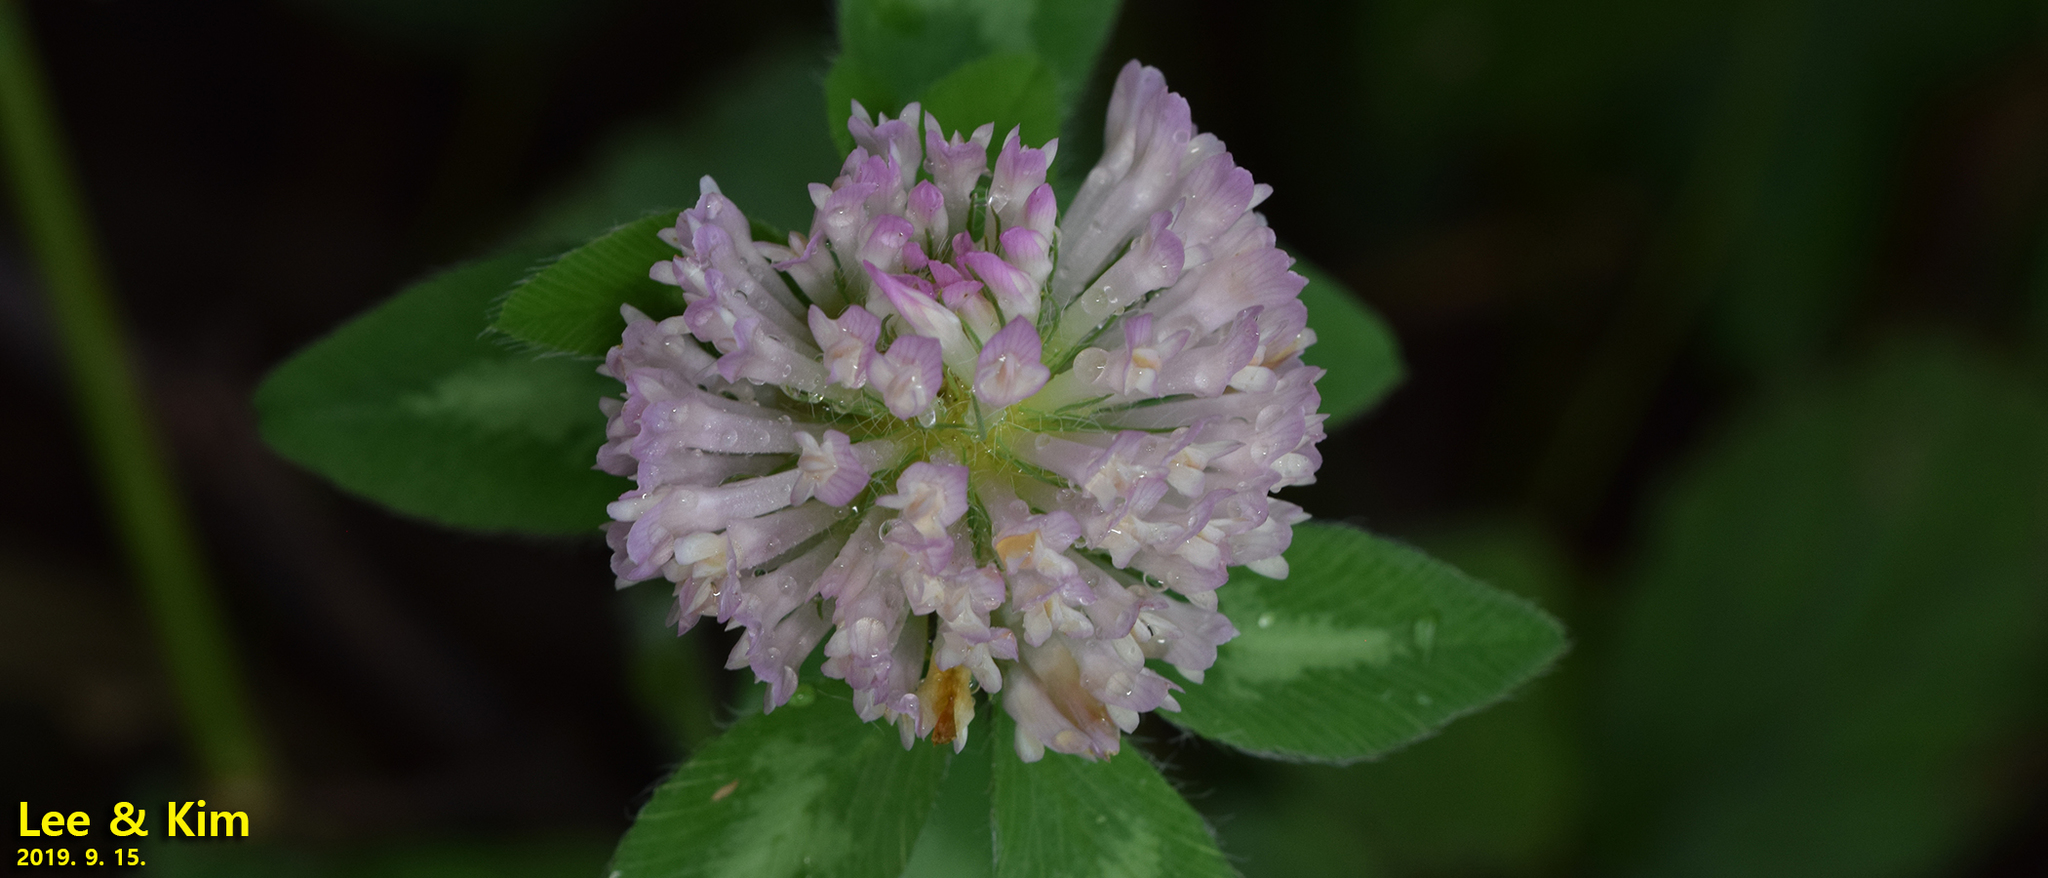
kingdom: Plantae
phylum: Tracheophyta
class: Magnoliopsida
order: Fabales
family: Fabaceae
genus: Trifolium
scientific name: Trifolium pratense
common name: Red clover
